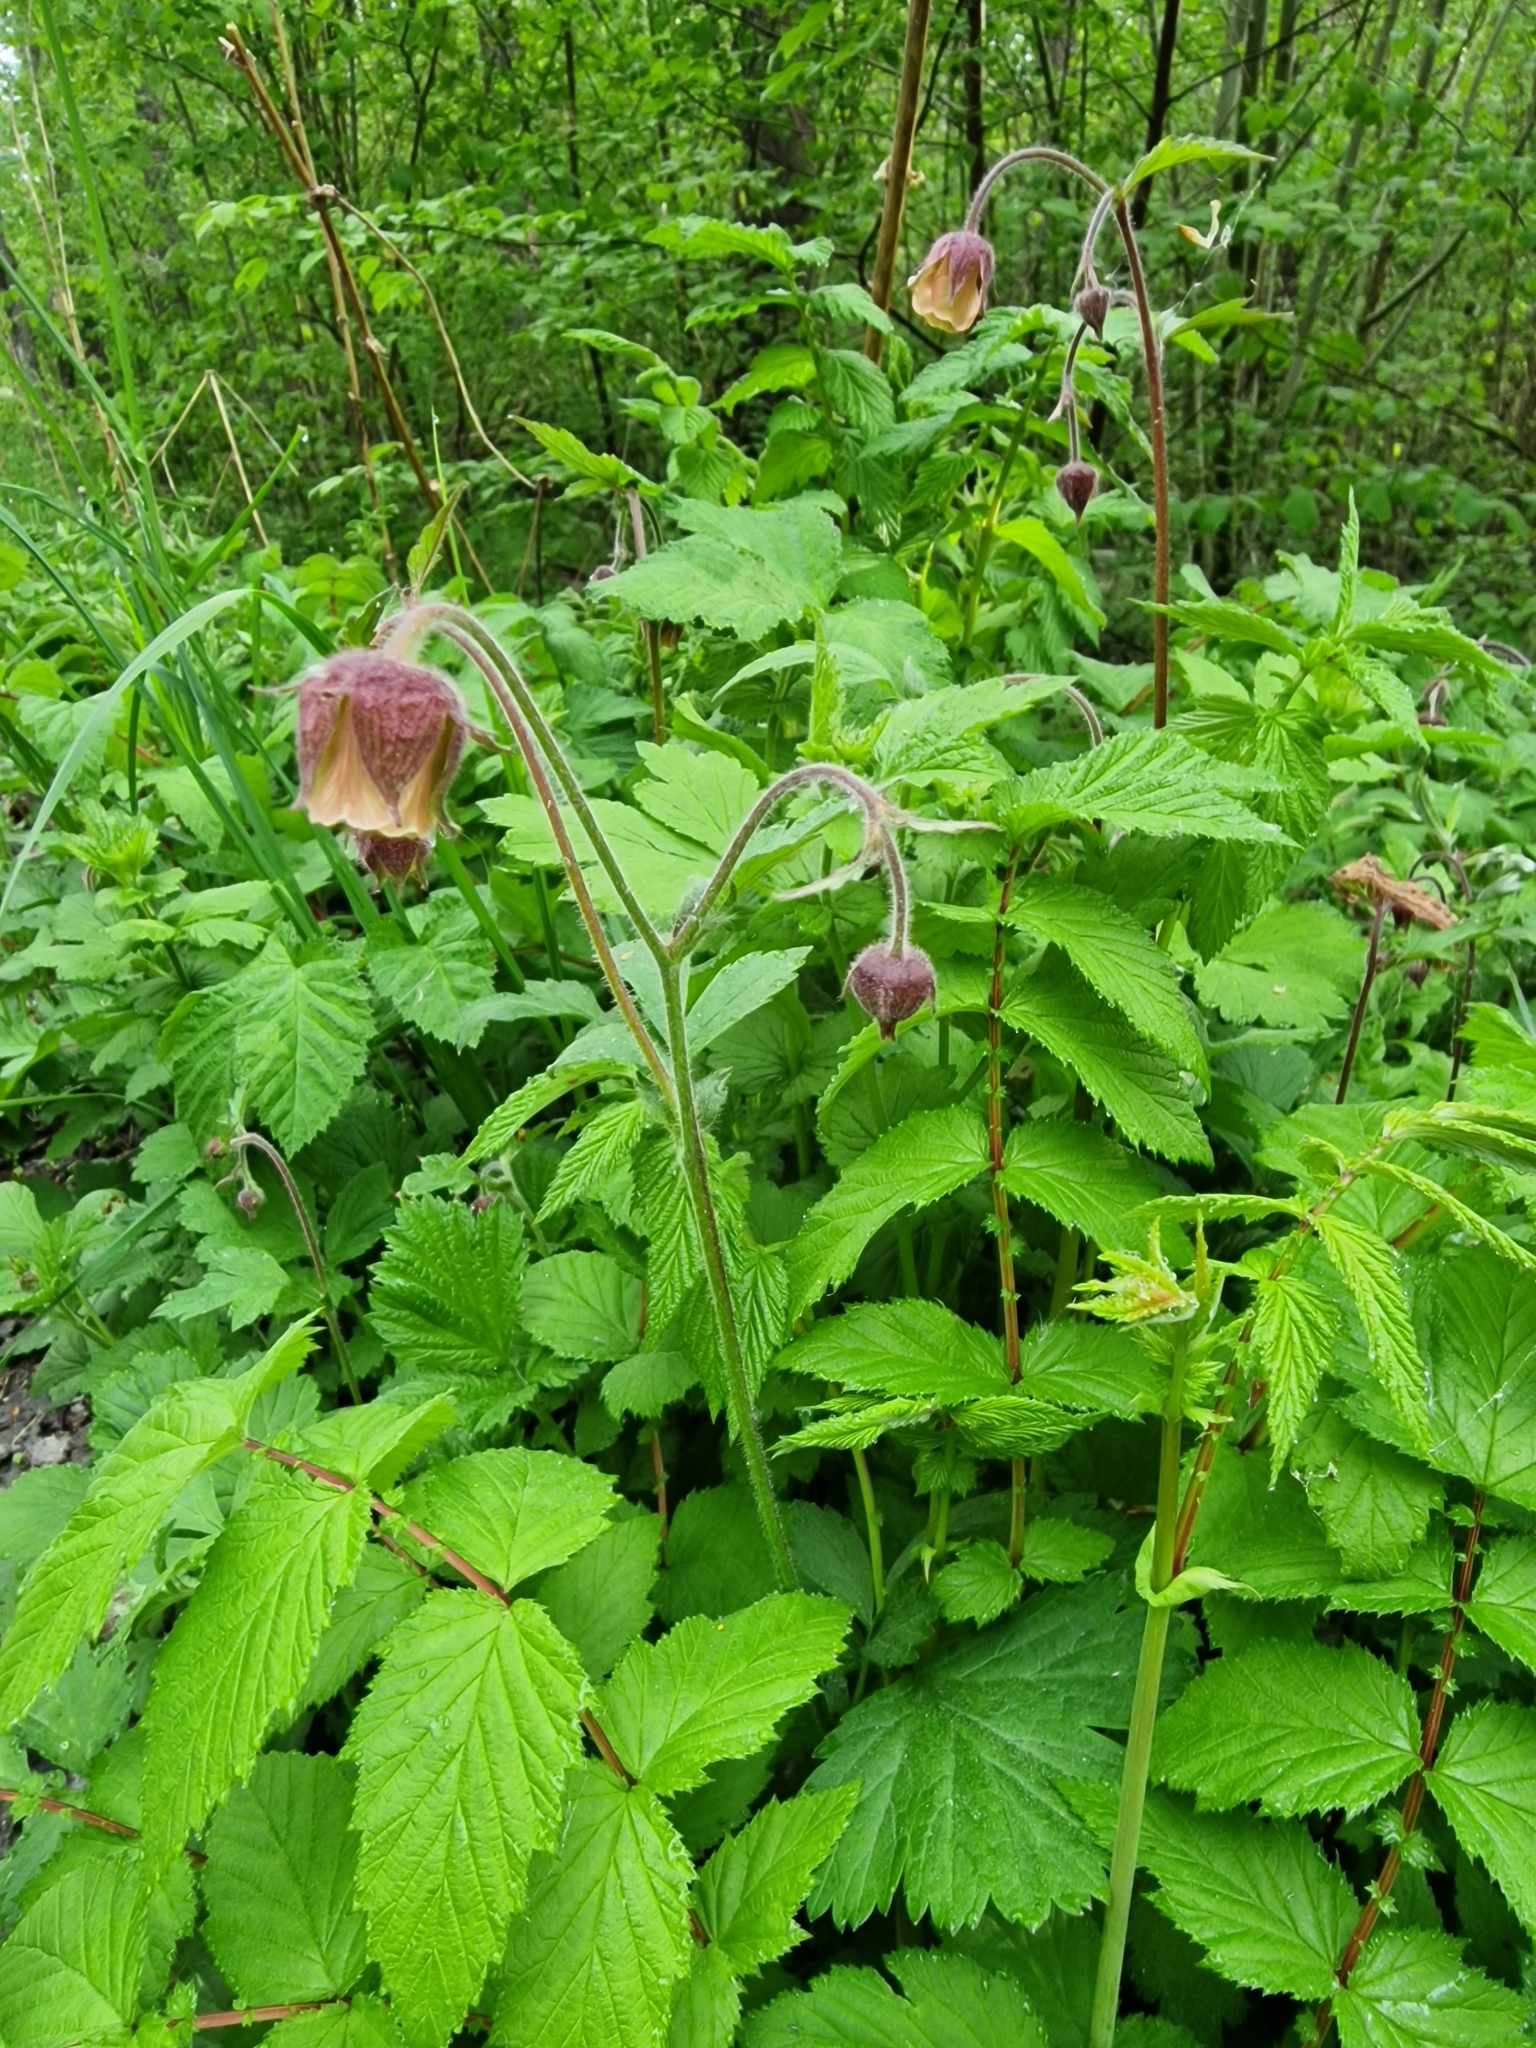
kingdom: Plantae
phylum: Tracheophyta
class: Magnoliopsida
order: Rosales
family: Rosaceae
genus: Geum
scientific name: Geum rivale
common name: Water avens
